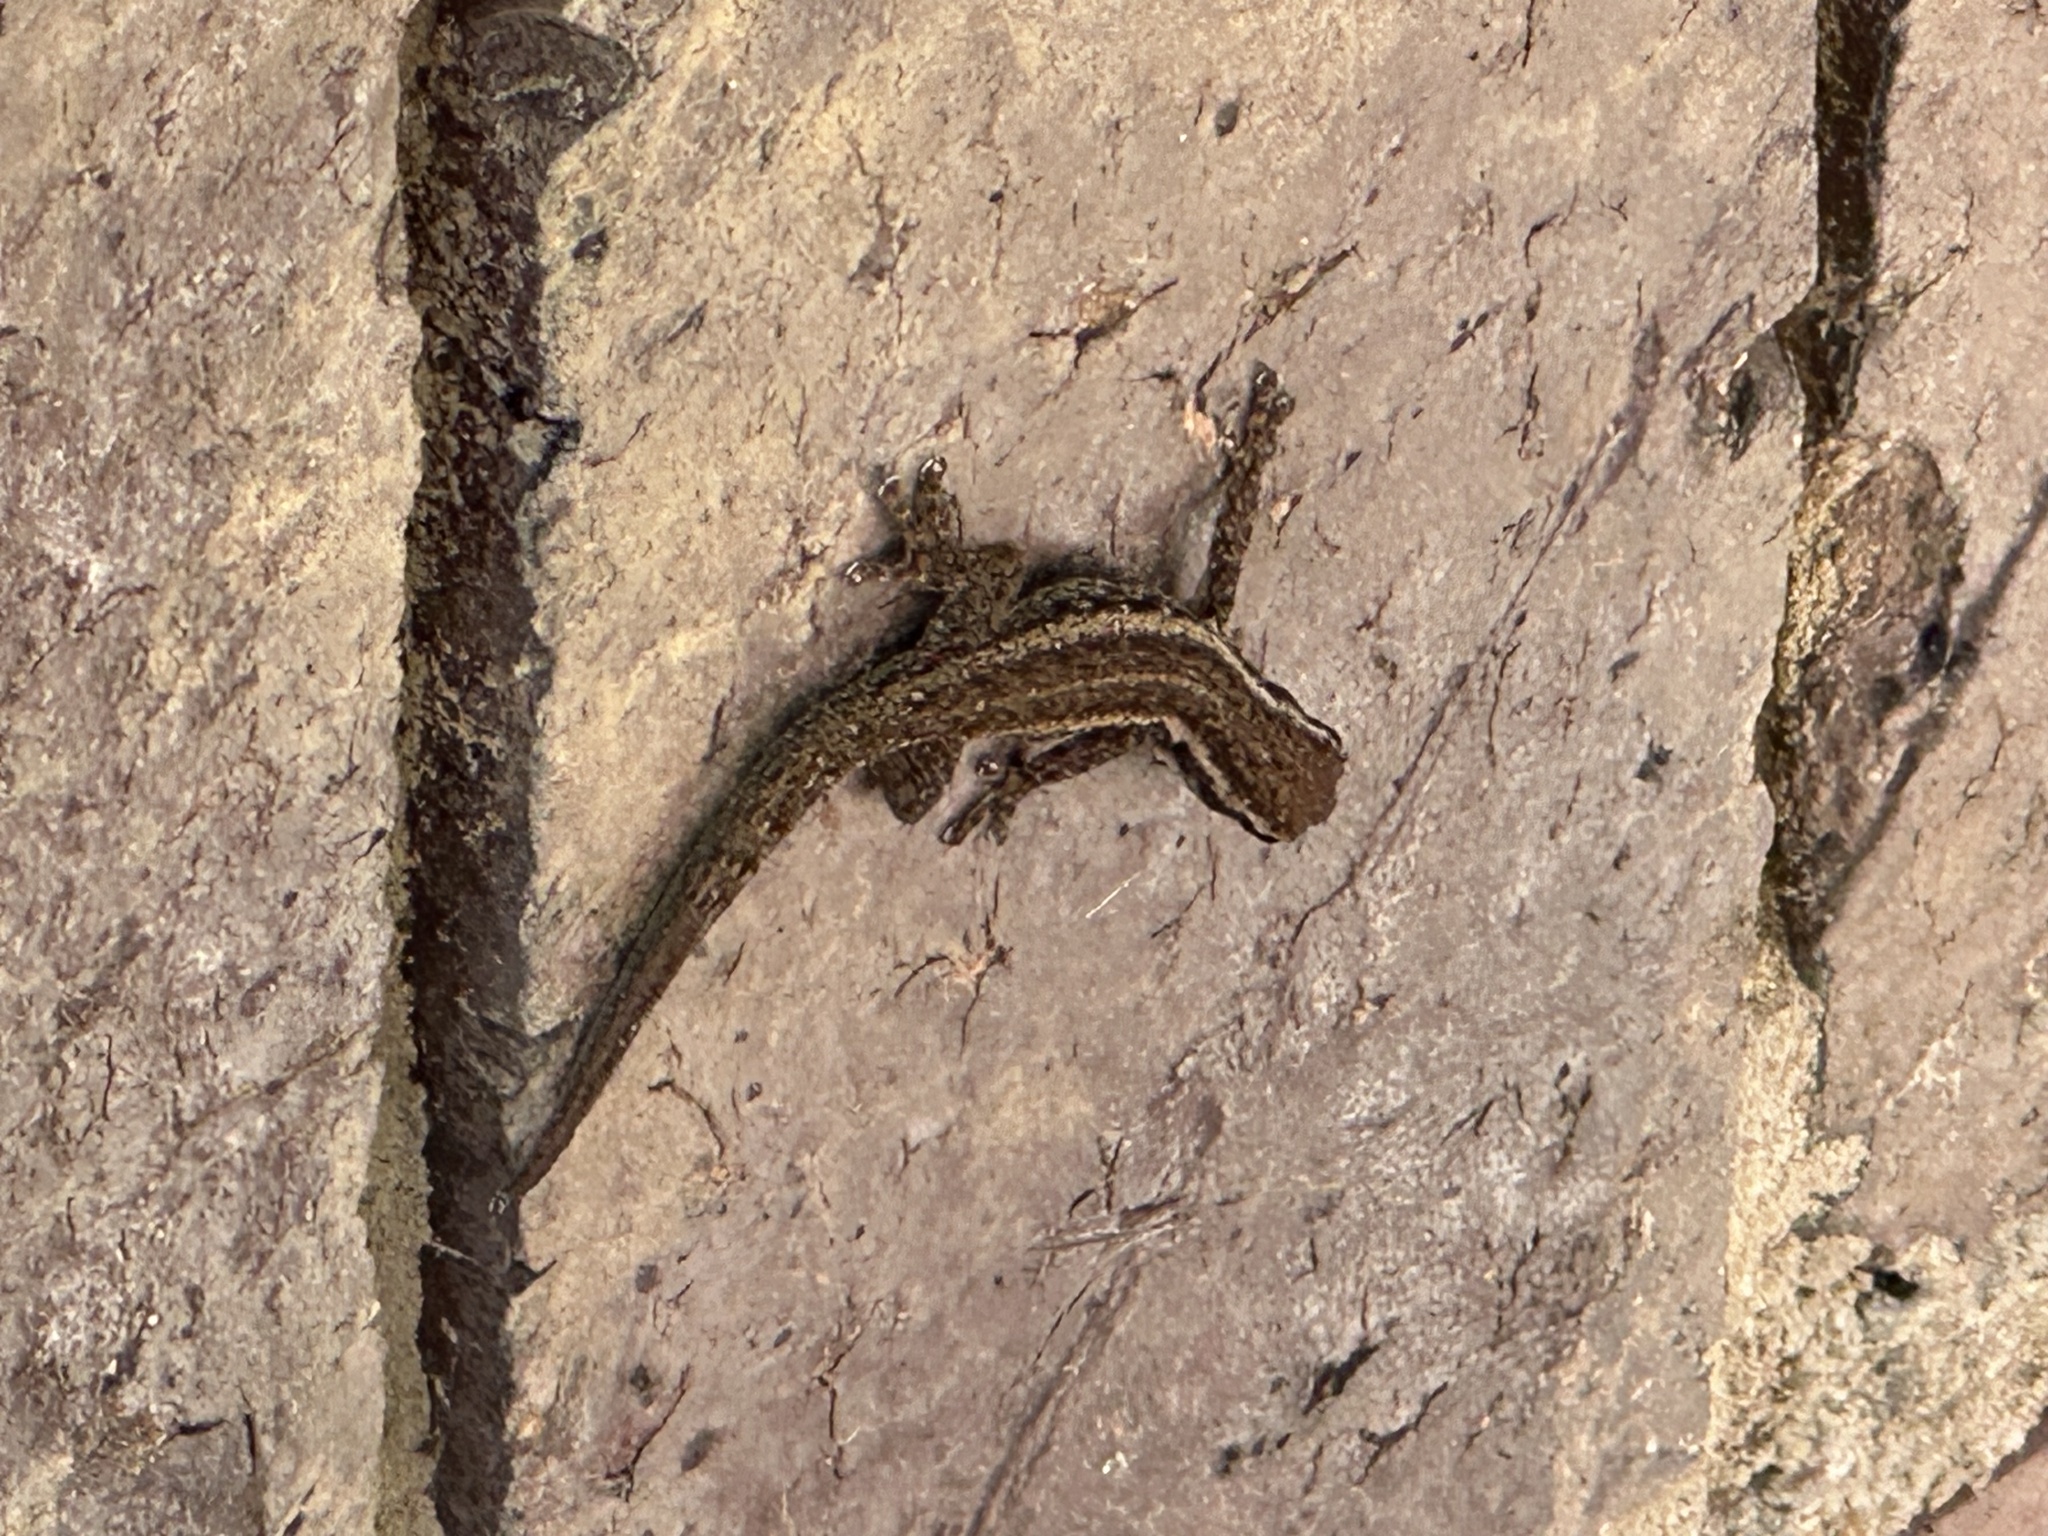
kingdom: Animalia
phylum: Chordata
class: Squamata
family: Gekkonidae
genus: Lygodactylus
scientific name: Lygodactylus capensis
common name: Cape dwarf gecko
